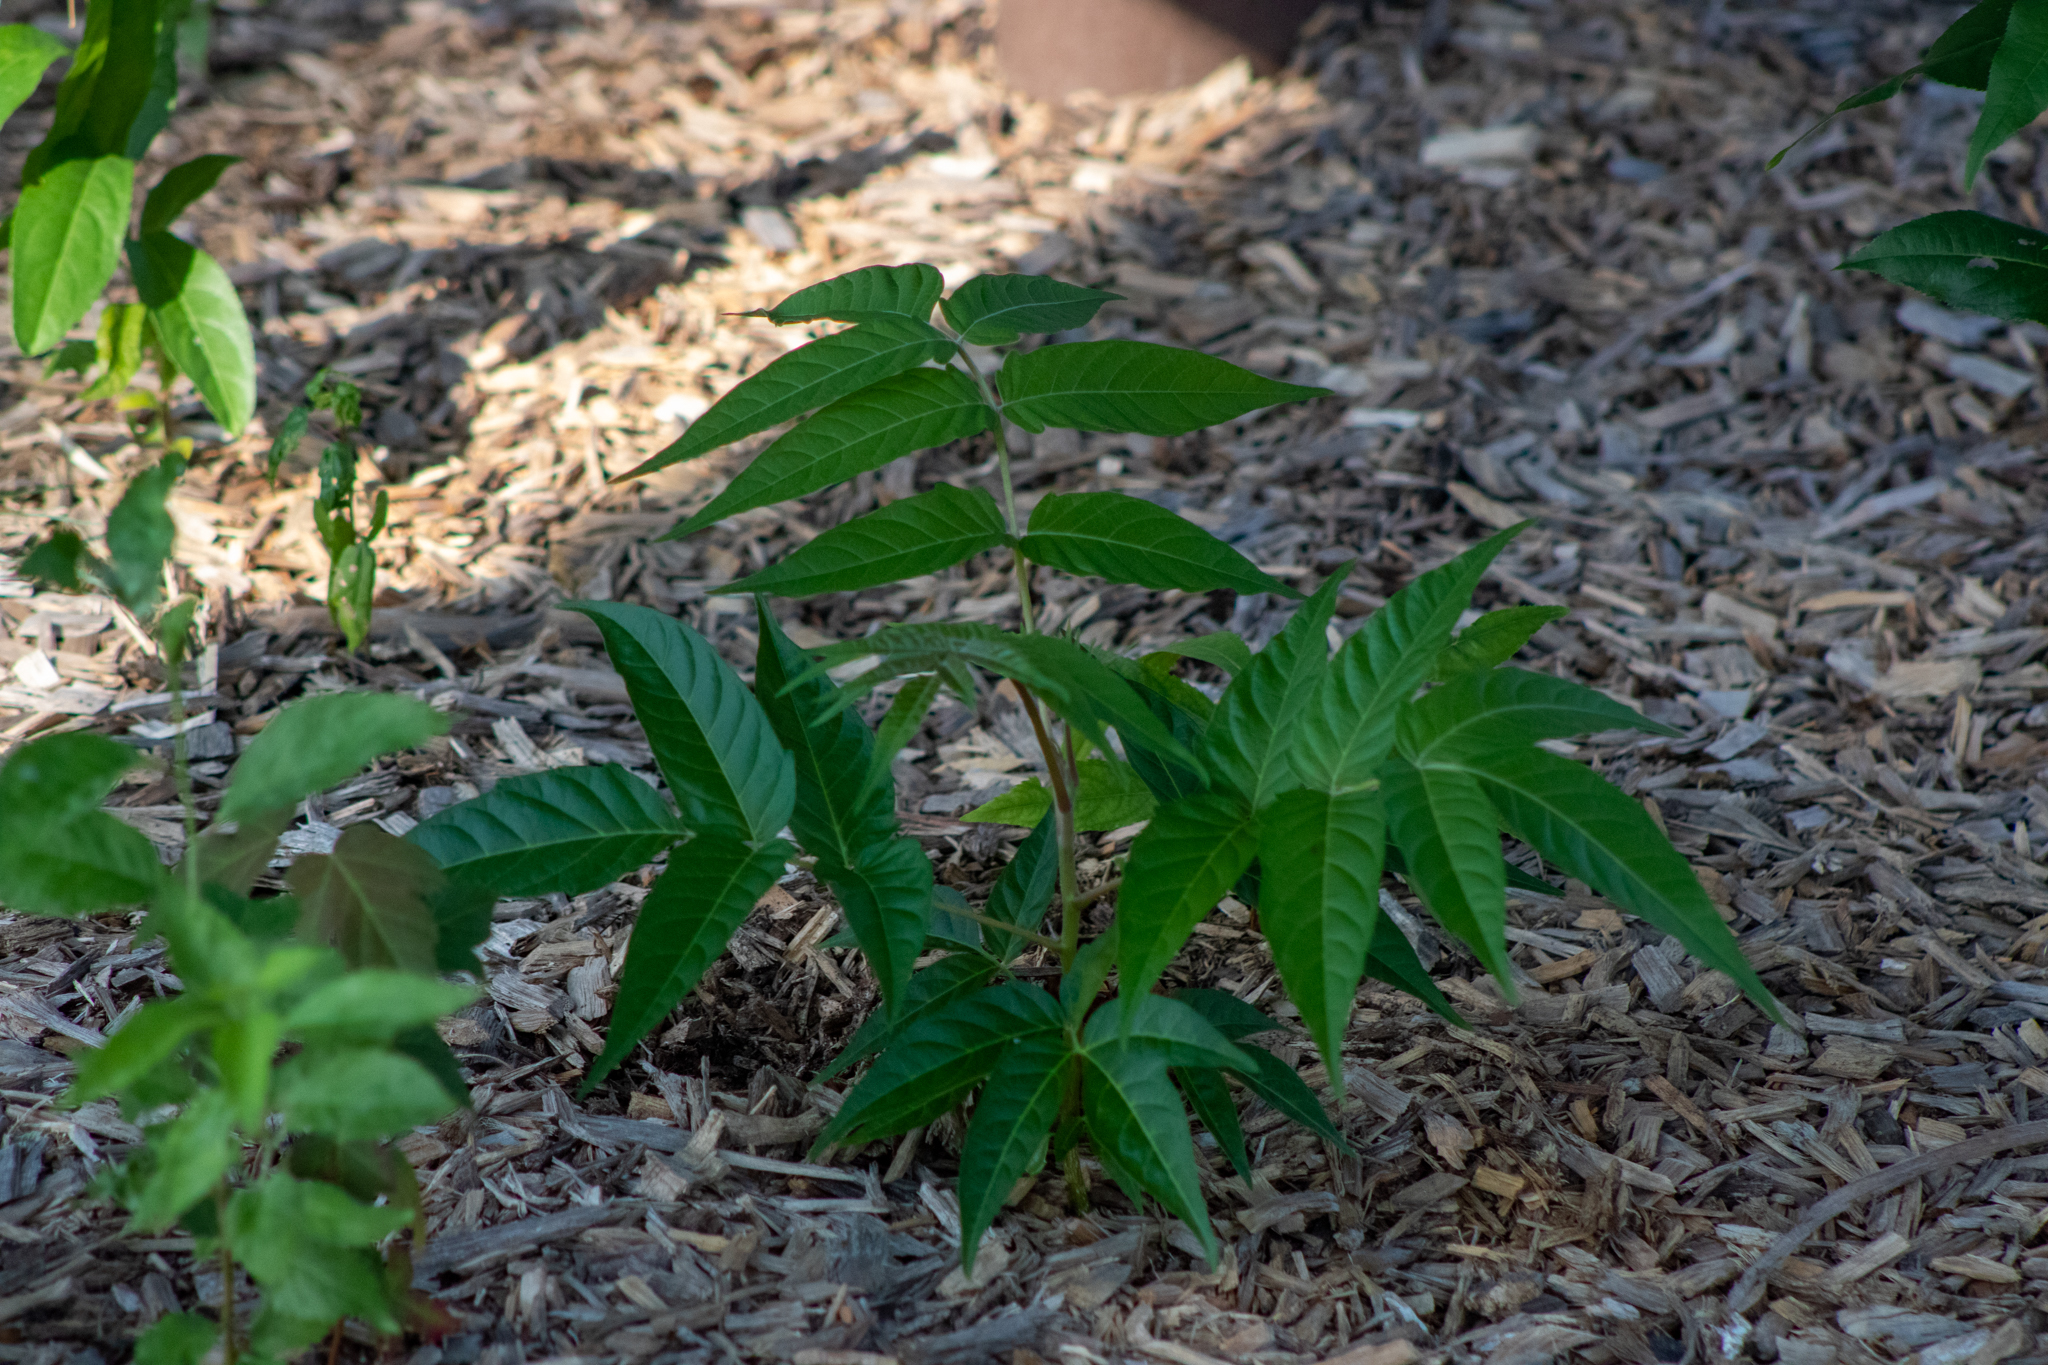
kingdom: Plantae
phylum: Tracheophyta
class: Magnoliopsida
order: Sapindales
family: Simaroubaceae
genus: Ailanthus
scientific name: Ailanthus altissima
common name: Tree-of-heaven
